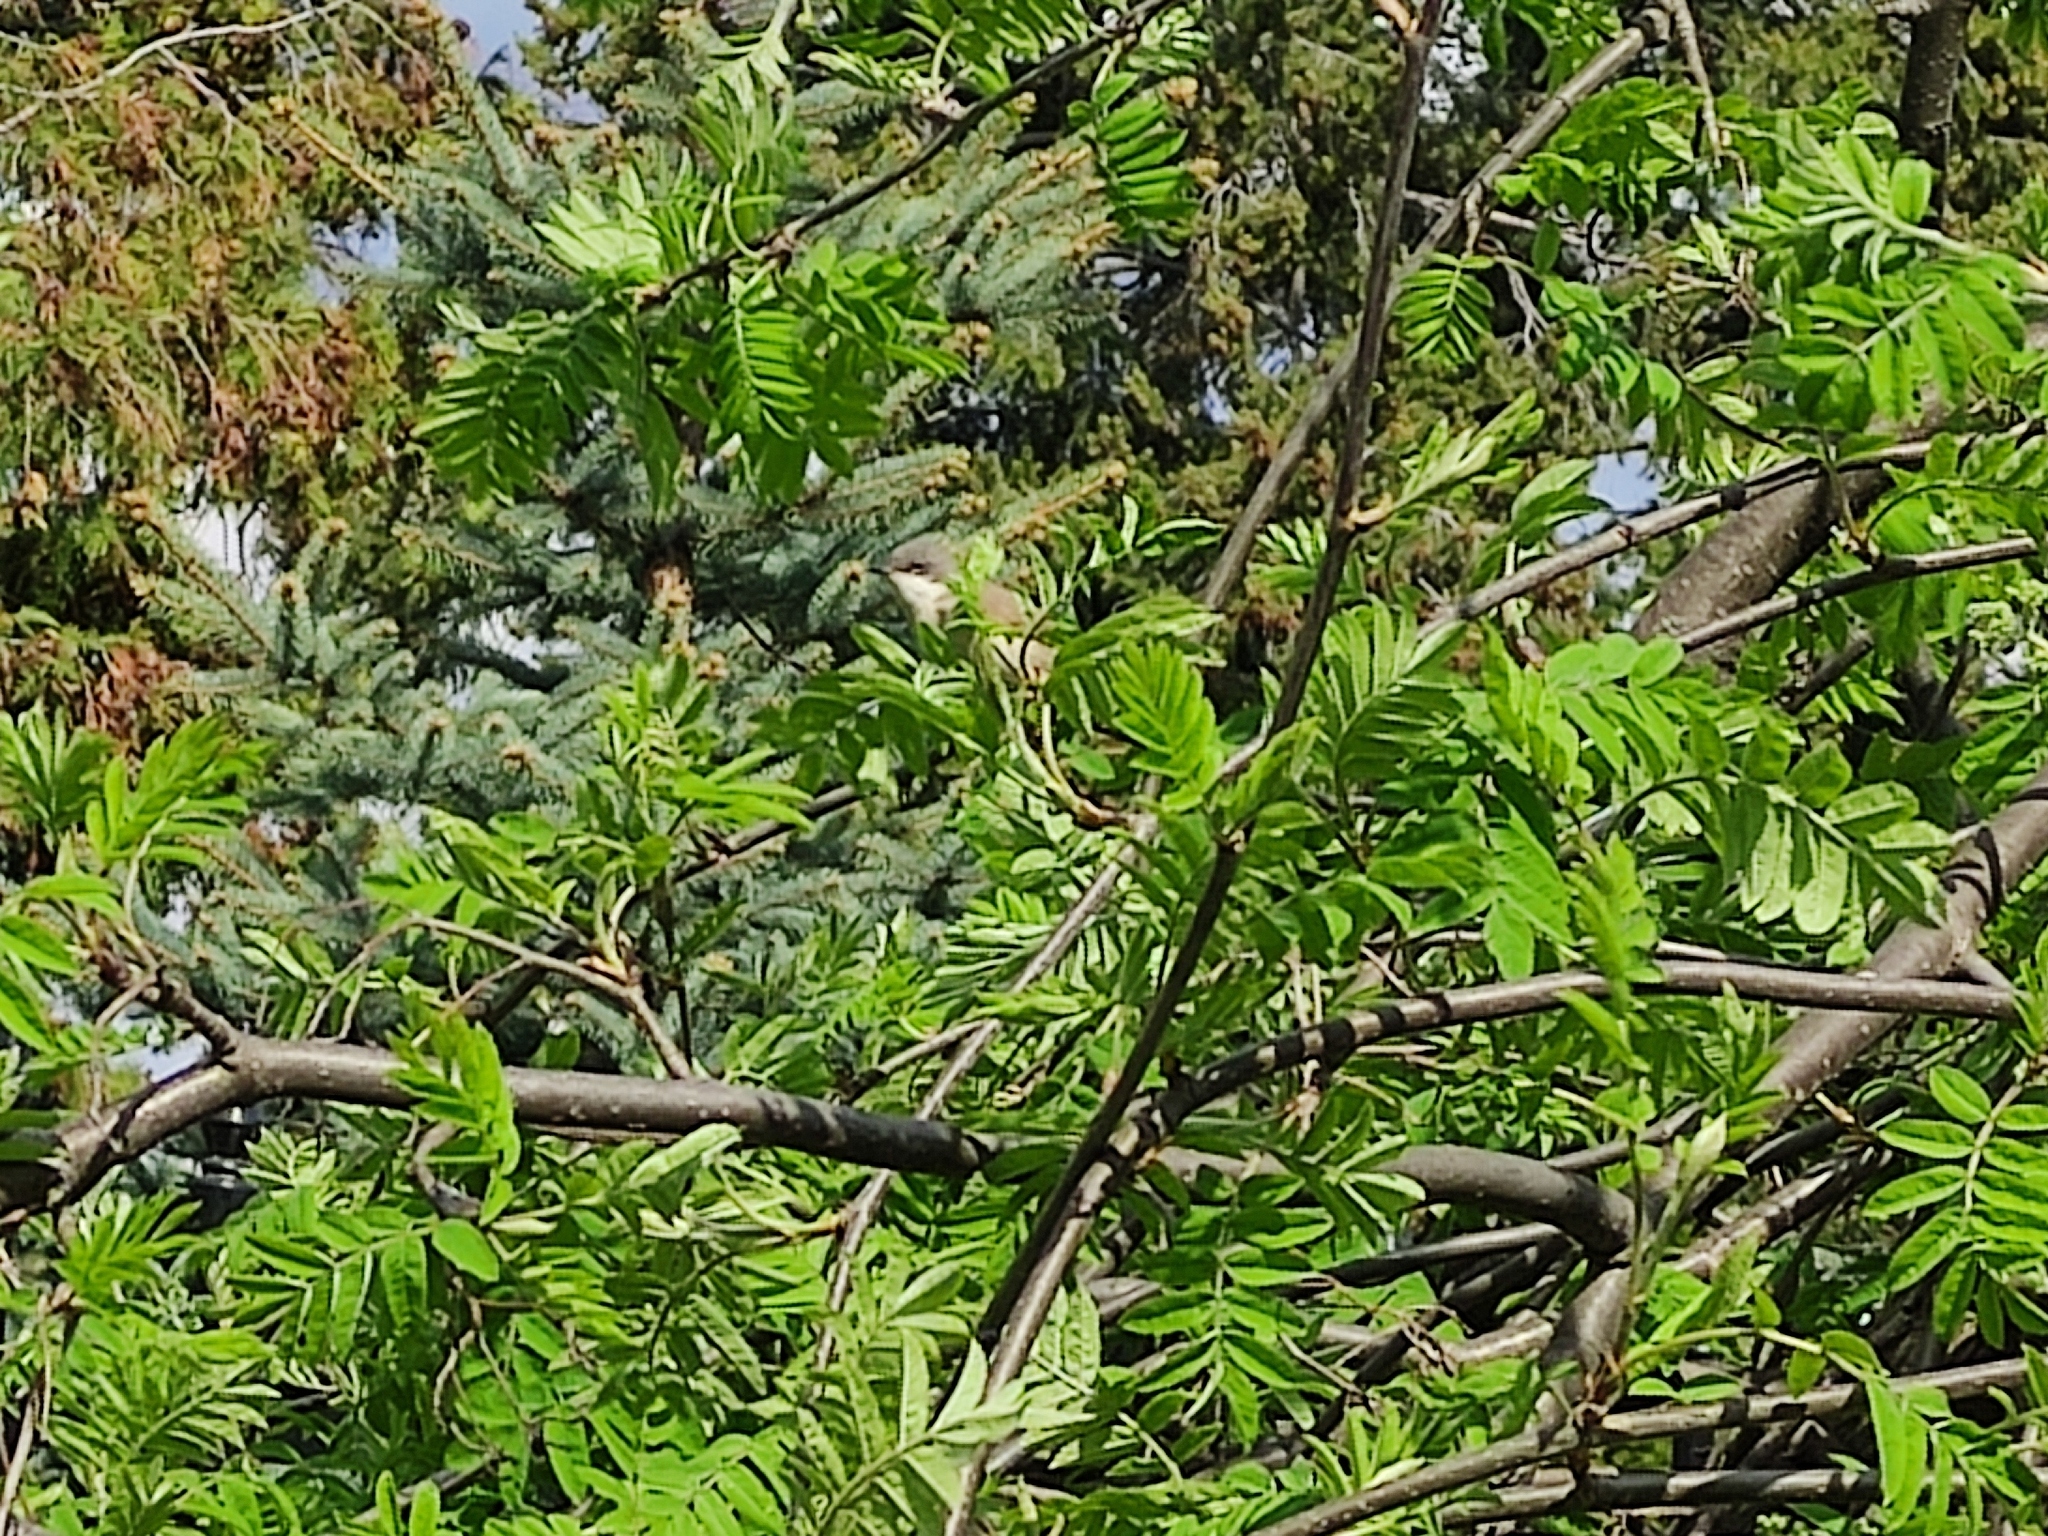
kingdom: Animalia
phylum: Chordata
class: Aves
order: Passeriformes
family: Sylviidae
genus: Sylvia
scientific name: Sylvia curruca
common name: Lesser whitethroat
